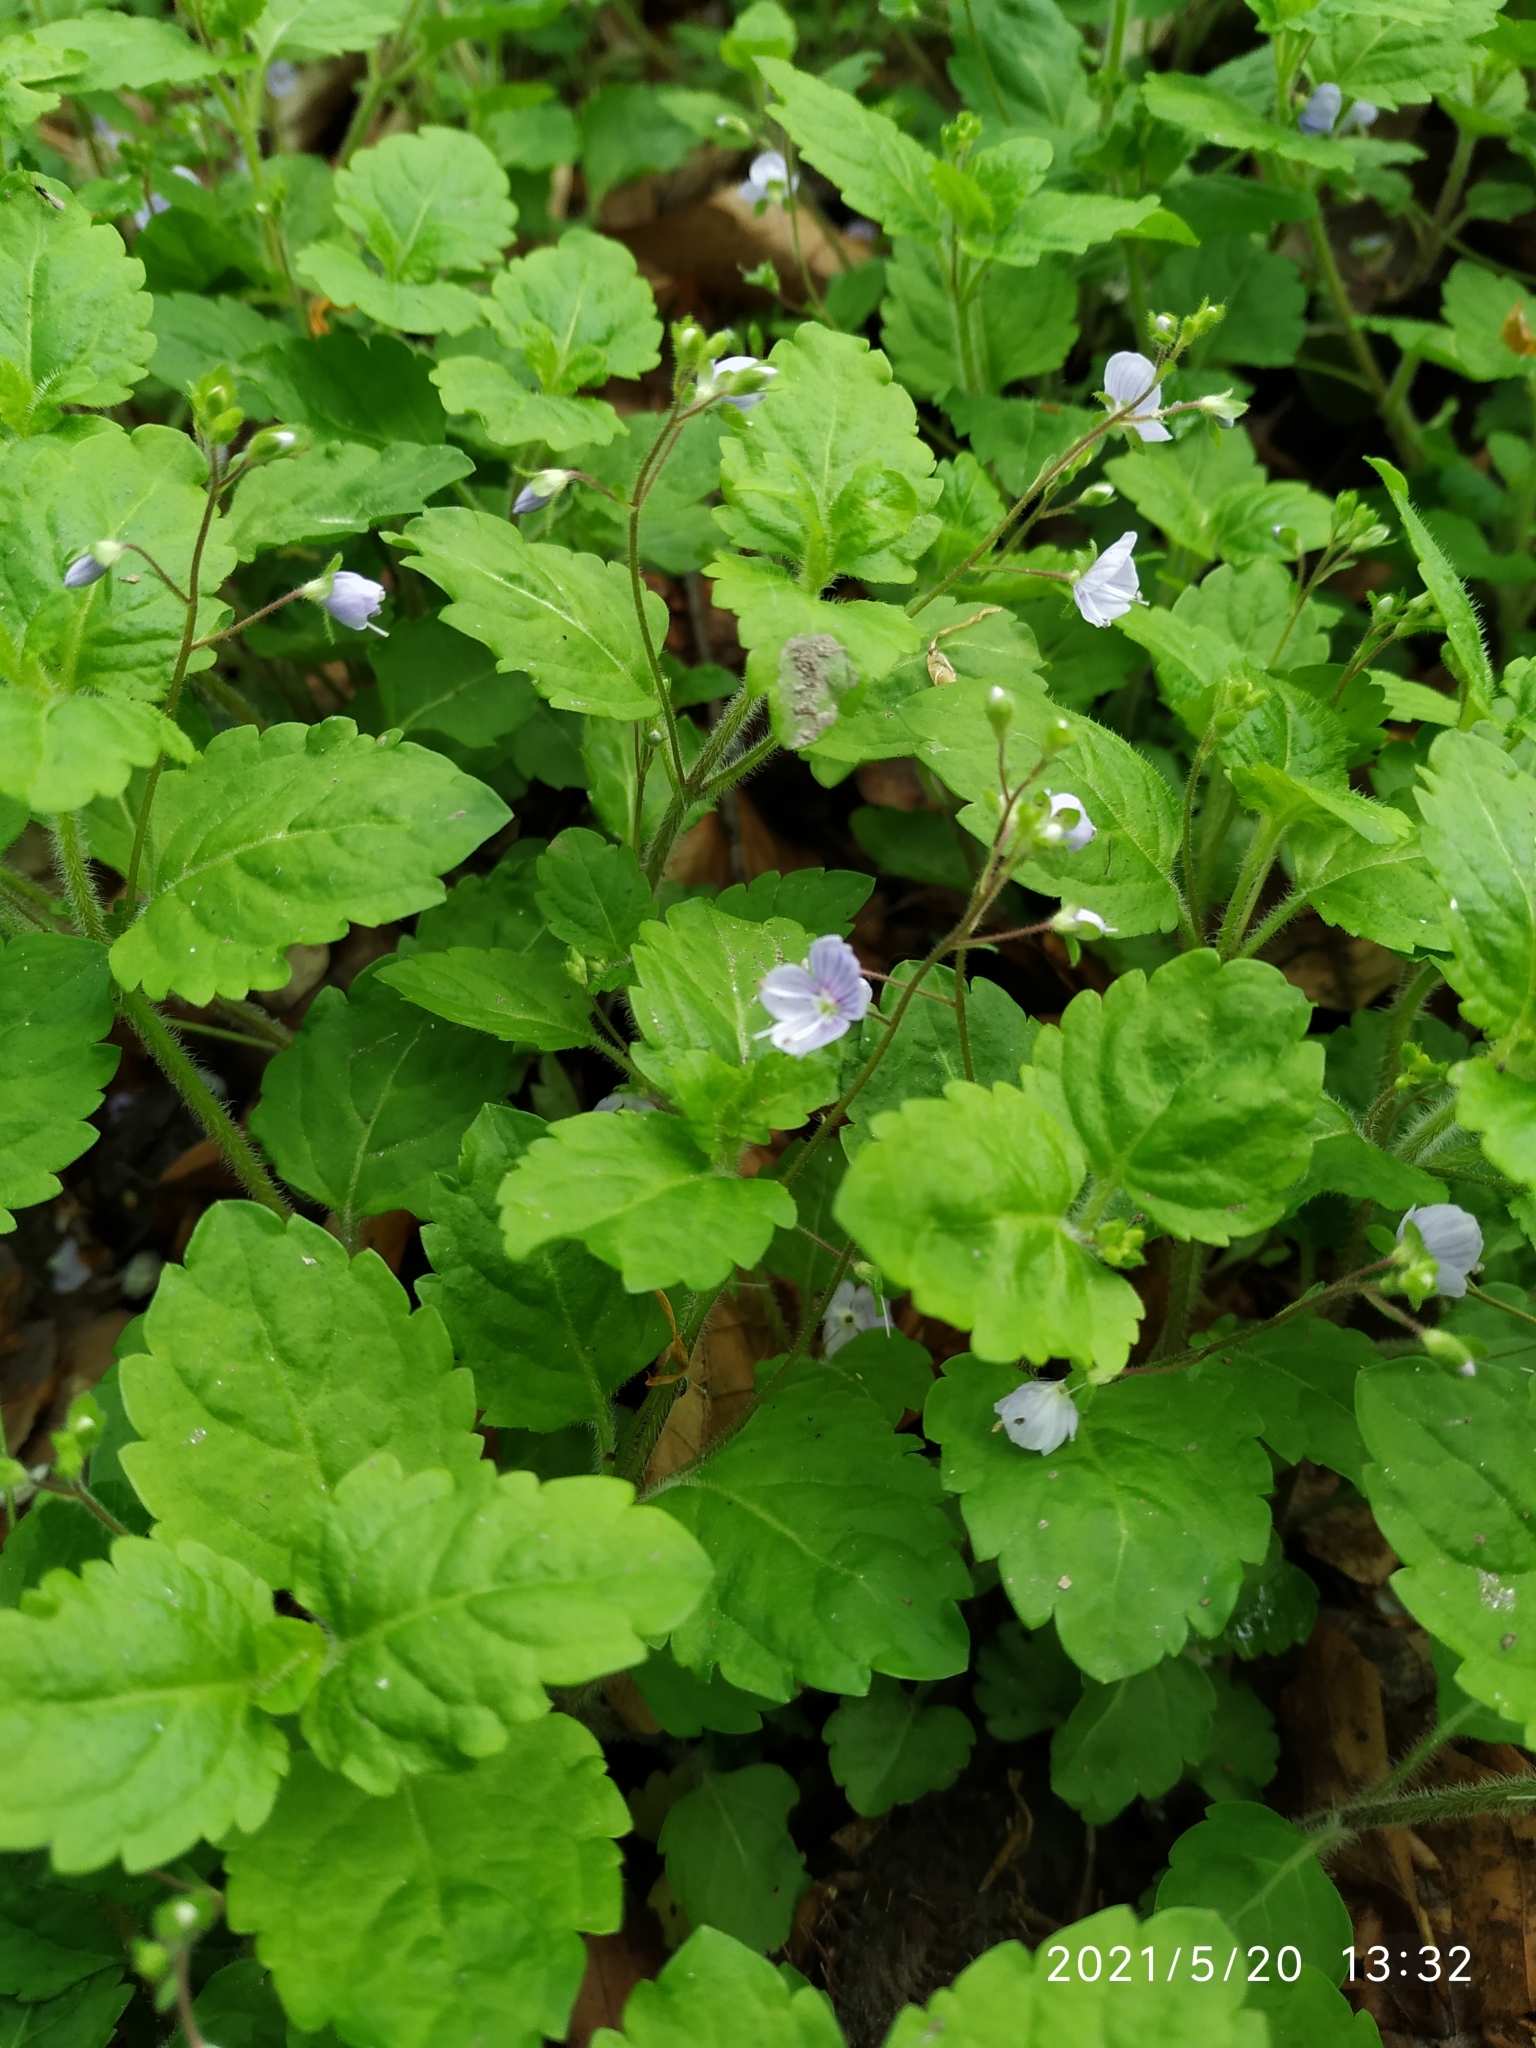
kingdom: Plantae
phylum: Tracheophyta
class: Magnoliopsida
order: Lamiales
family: Plantaginaceae
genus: Veronica
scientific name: Veronica montana
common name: Wood speedwell
